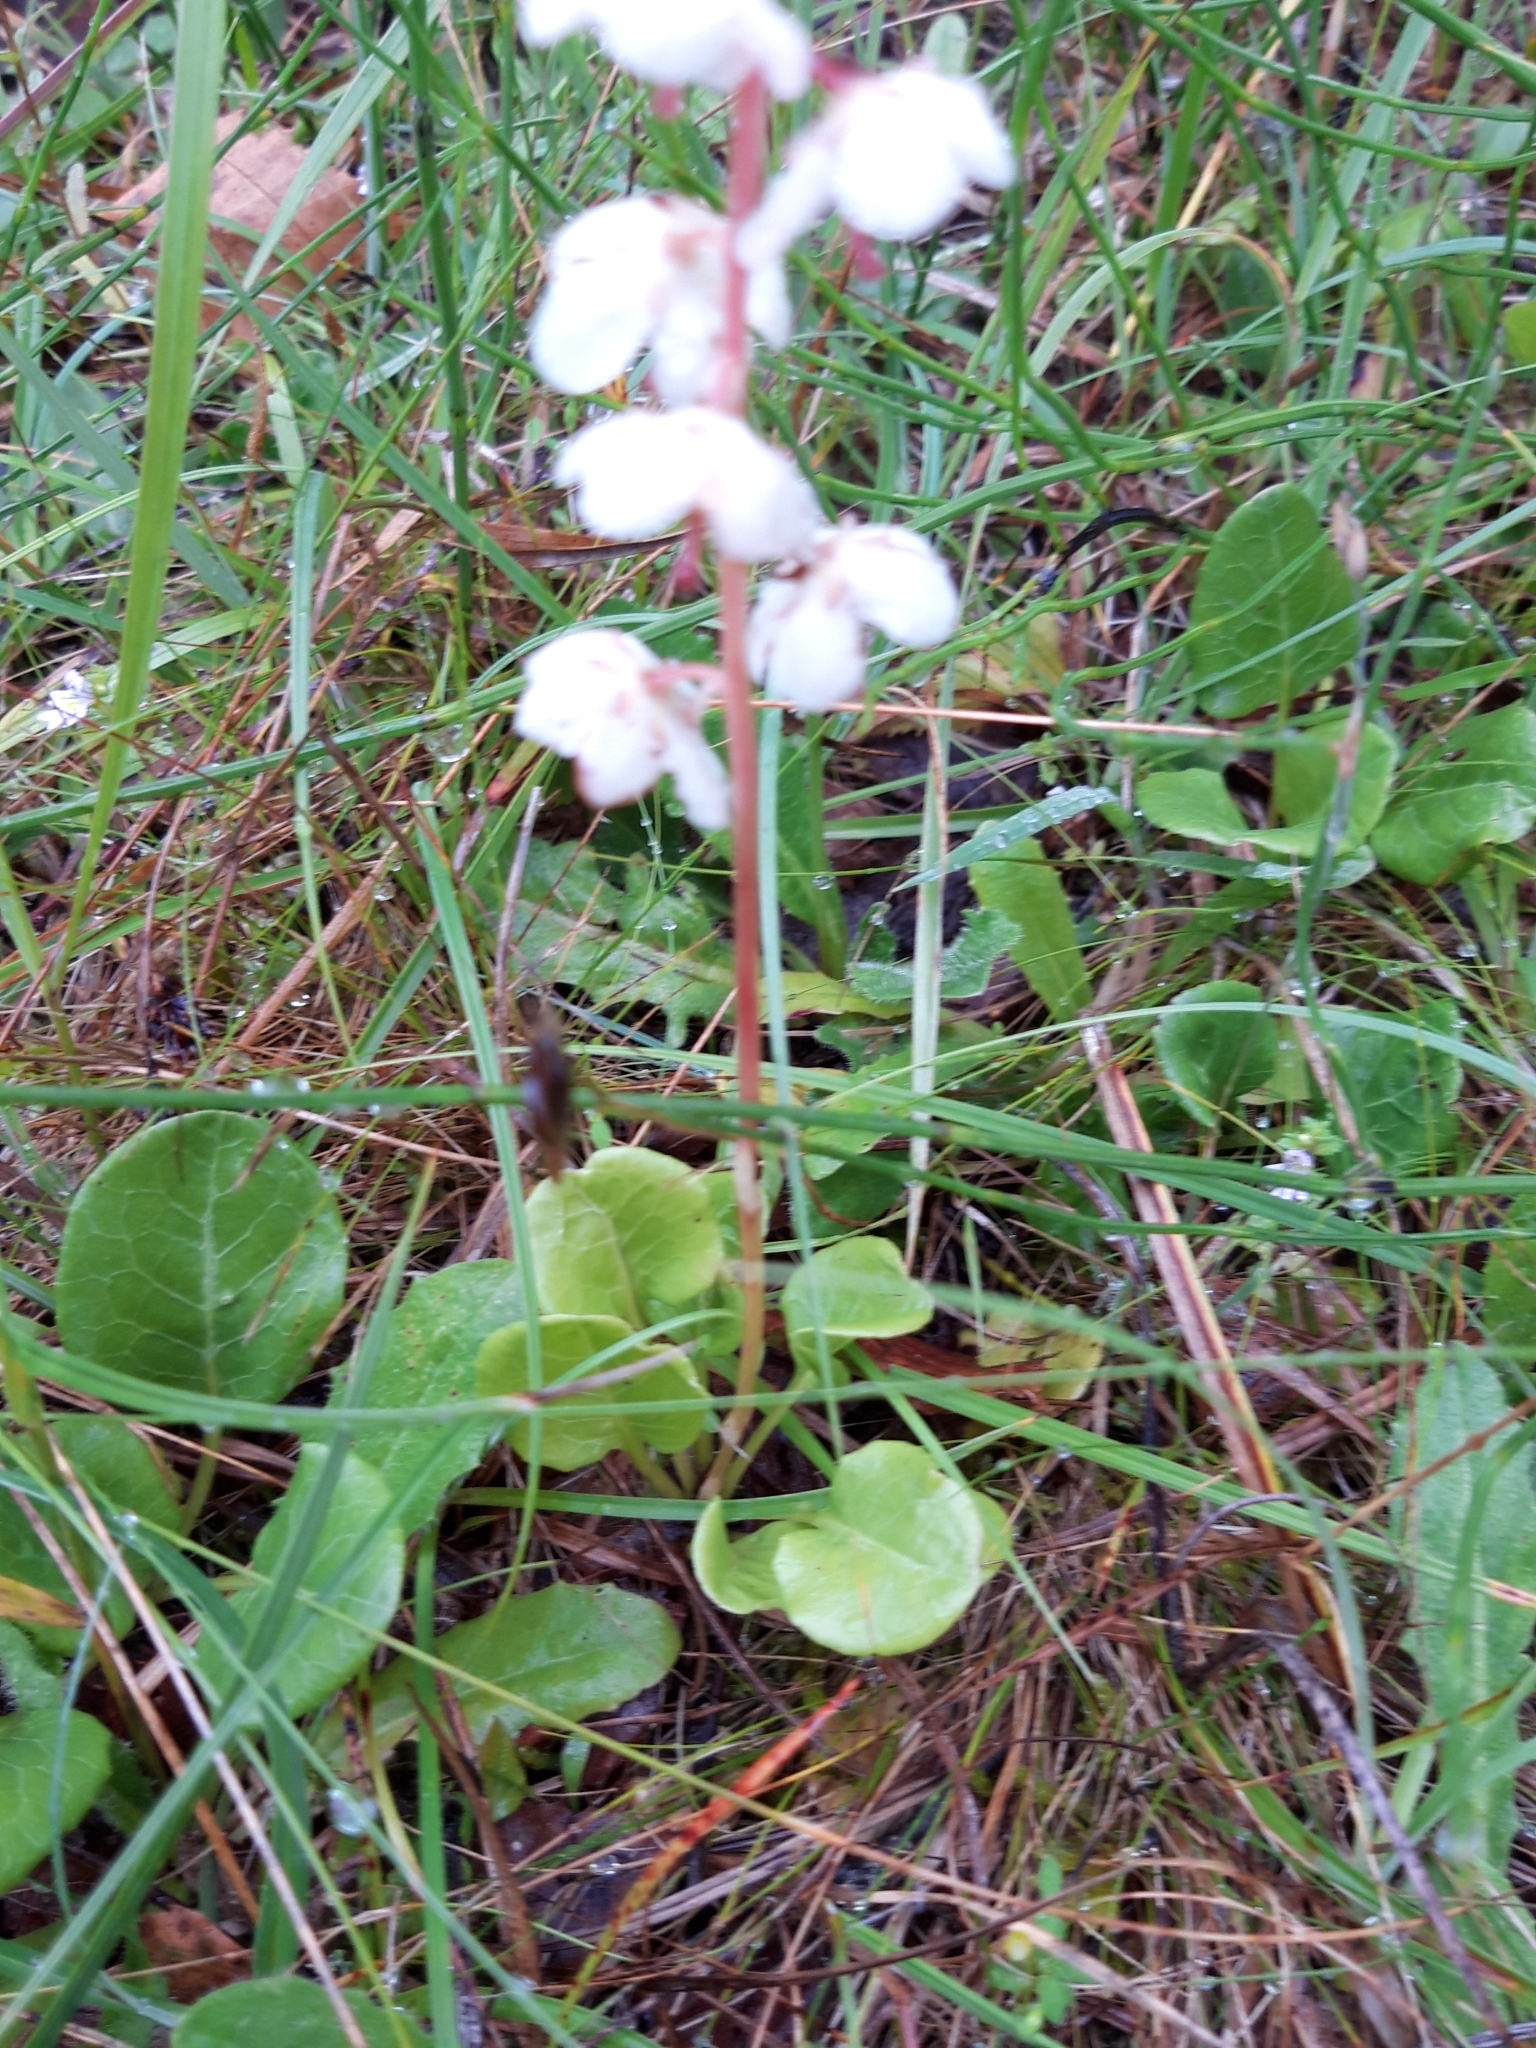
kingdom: Plantae
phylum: Tracheophyta
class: Magnoliopsida
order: Ericales
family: Ericaceae
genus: Pyrola
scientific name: Pyrola rotundifolia
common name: Round-leaved wintergreen
